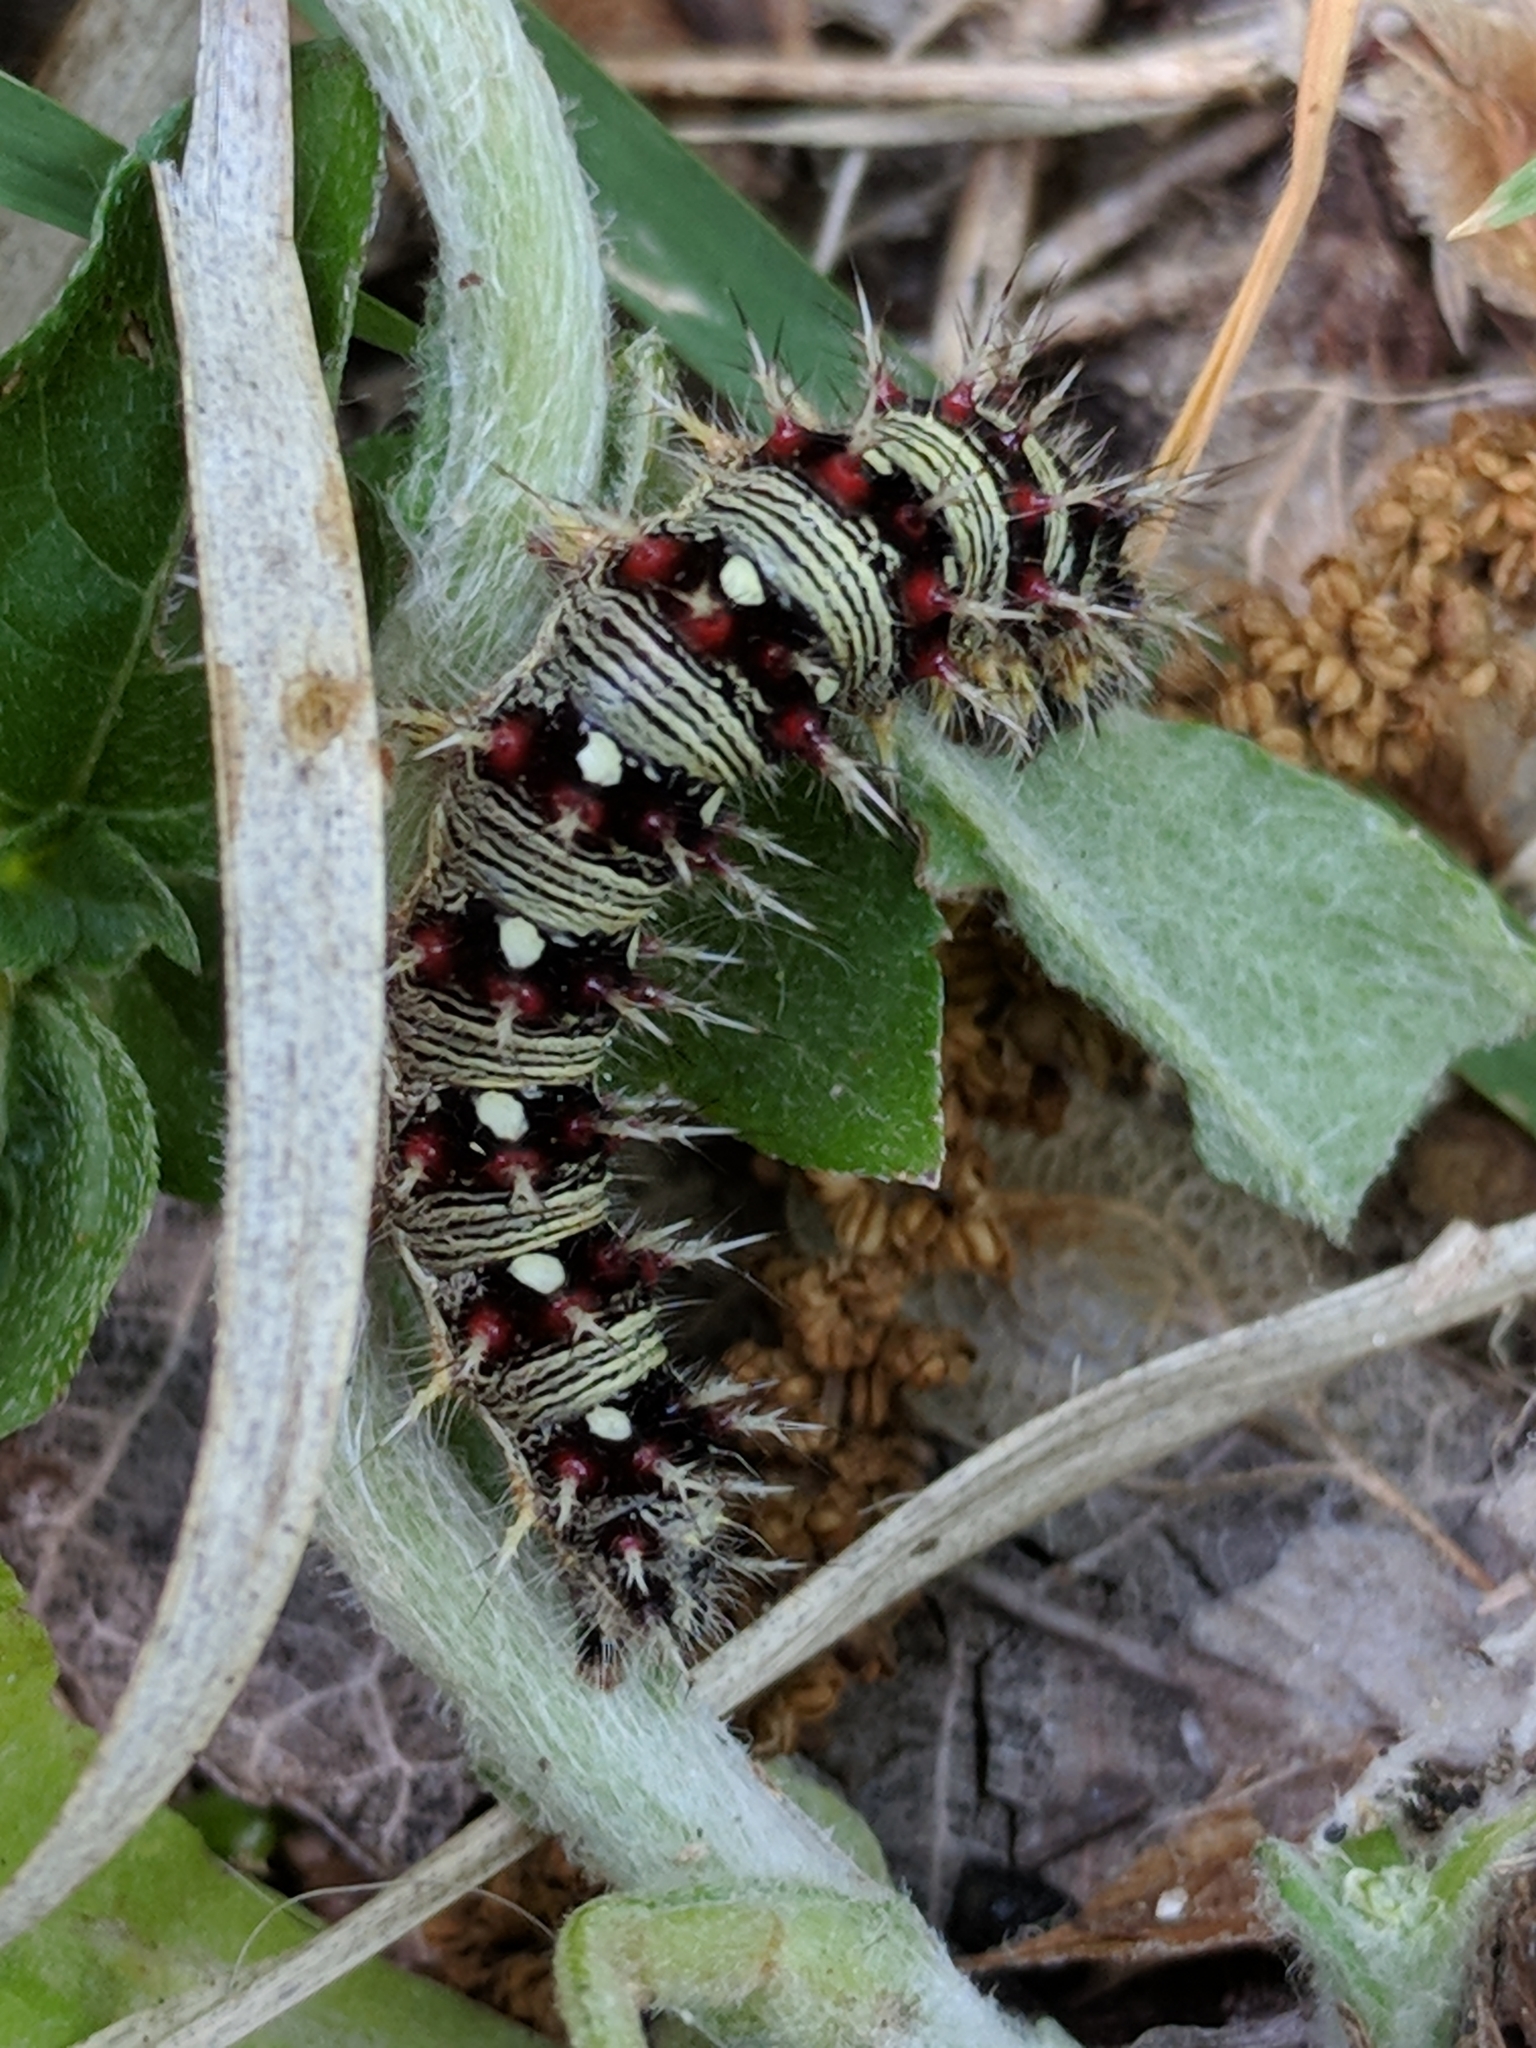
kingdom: Animalia
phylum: Arthropoda
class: Insecta
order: Lepidoptera
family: Nymphalidae
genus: Vanessa
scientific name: Vanessa virginiensis
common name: American lady
